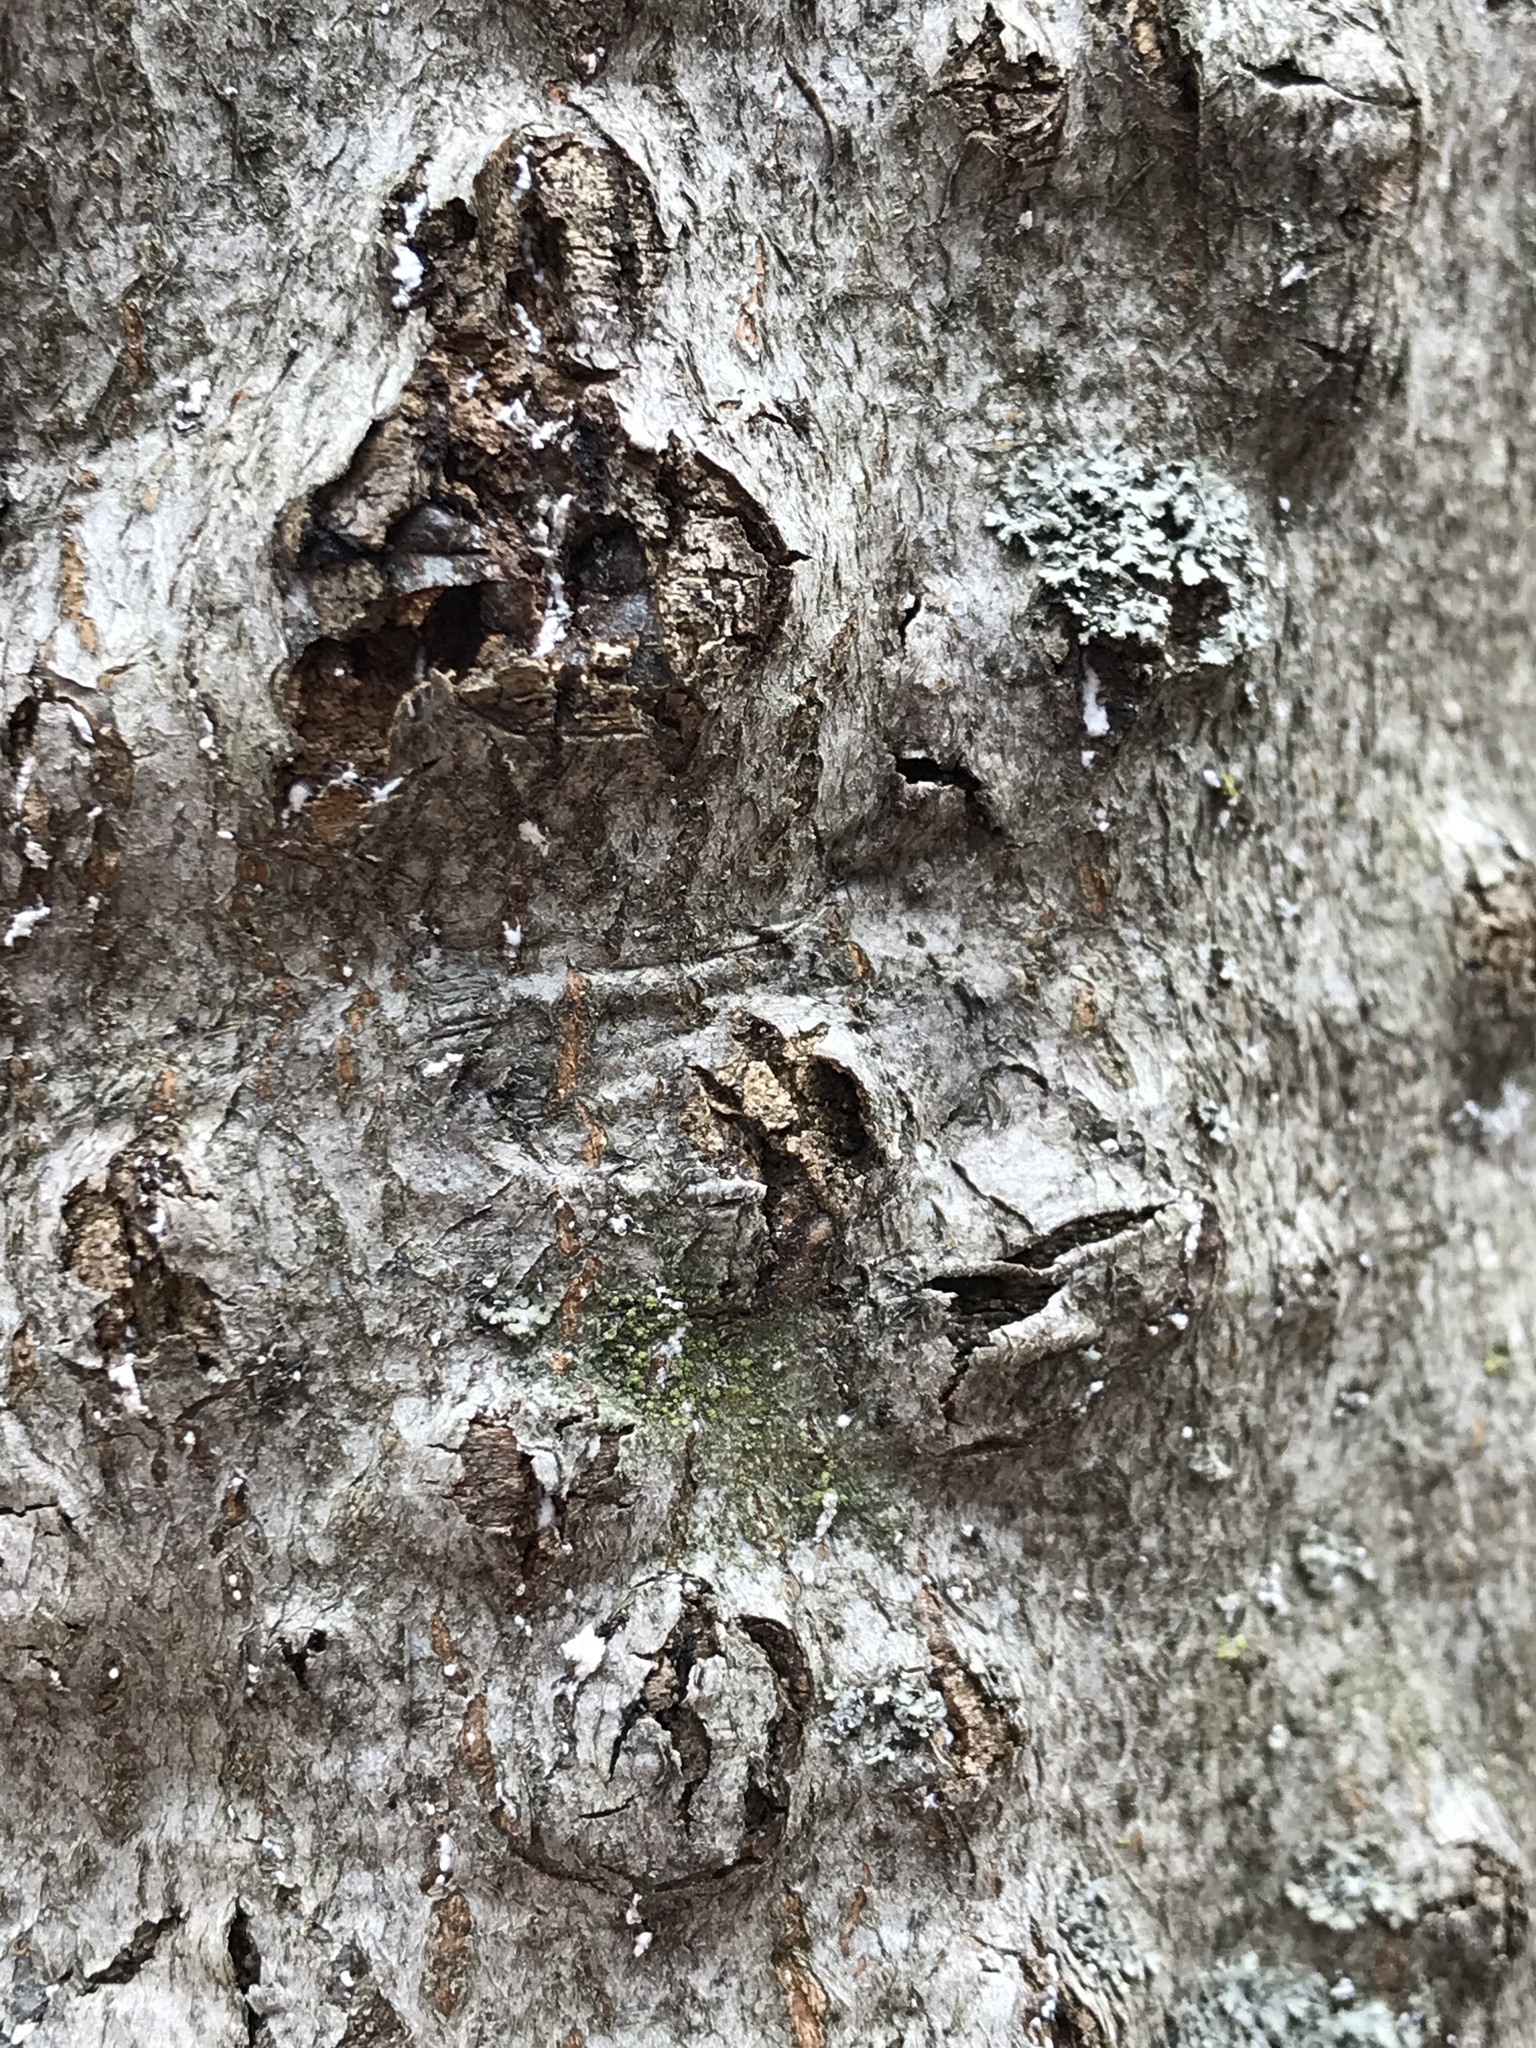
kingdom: Animalia
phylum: Arthropoda
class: Insecta
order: Hemiptera
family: Eriococcidae
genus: Cryptococcus
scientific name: Cryptococcus fagisuga
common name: Beech scale
